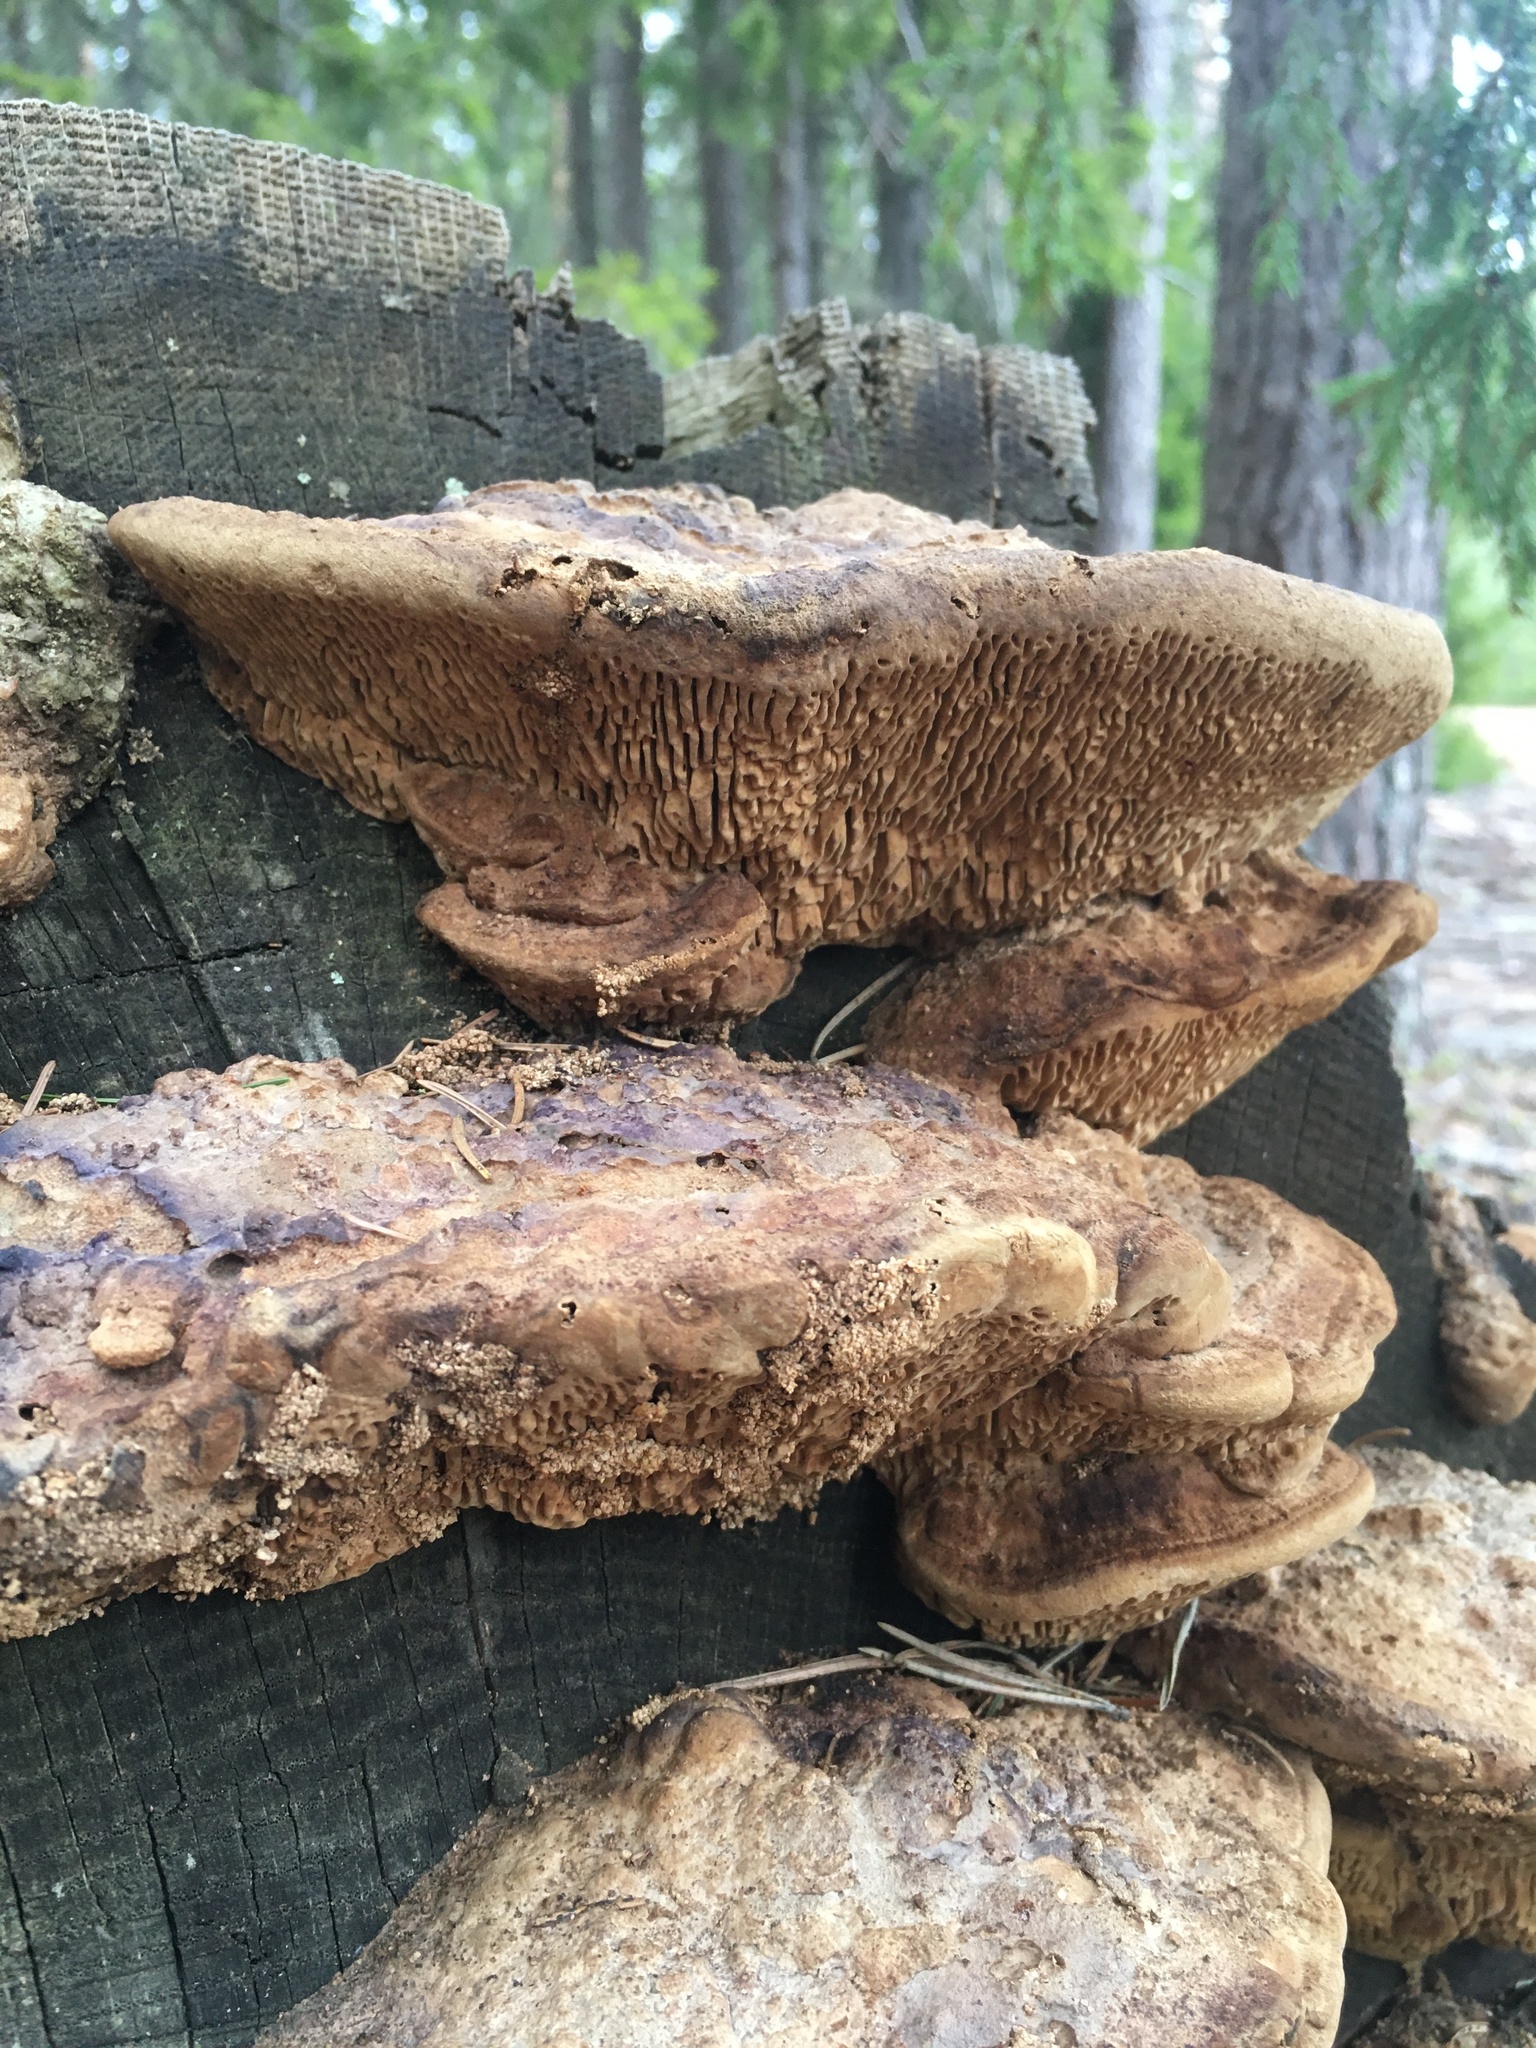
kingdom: Fungi
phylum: Basidiomycota
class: Agaricomycetes
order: Polyporales
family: Fomitopsidaceae
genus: Fomitopsis
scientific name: Fomitopsis
